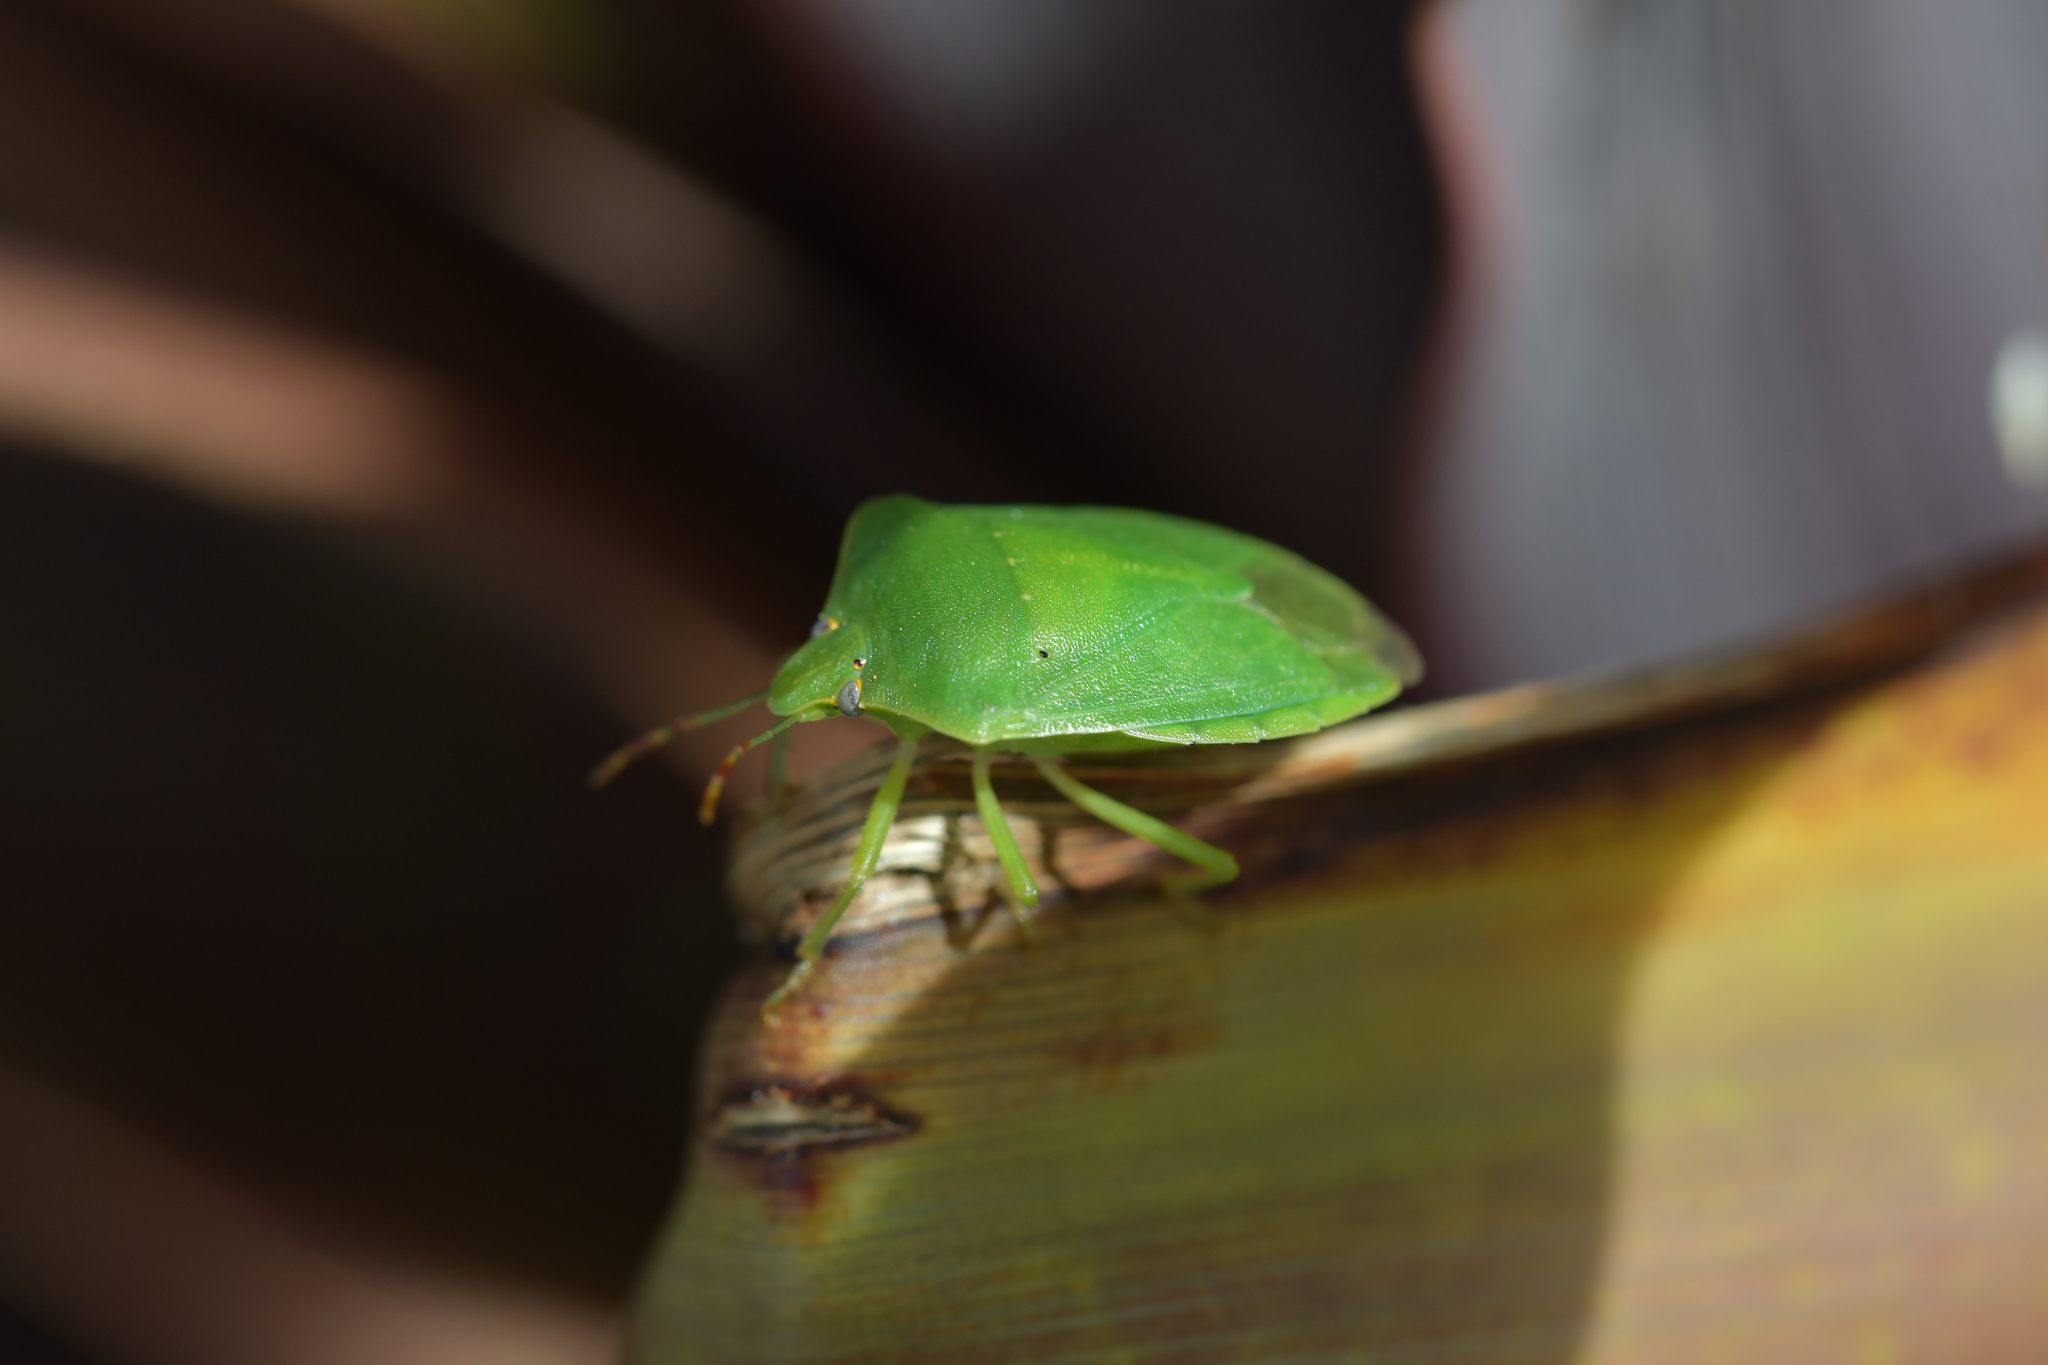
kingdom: Animalia
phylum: Arthropoda
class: Insecta
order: Hemiptera
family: Pentatomidae
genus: Nezara
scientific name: Nezara viridula
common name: Southern green stink bug
